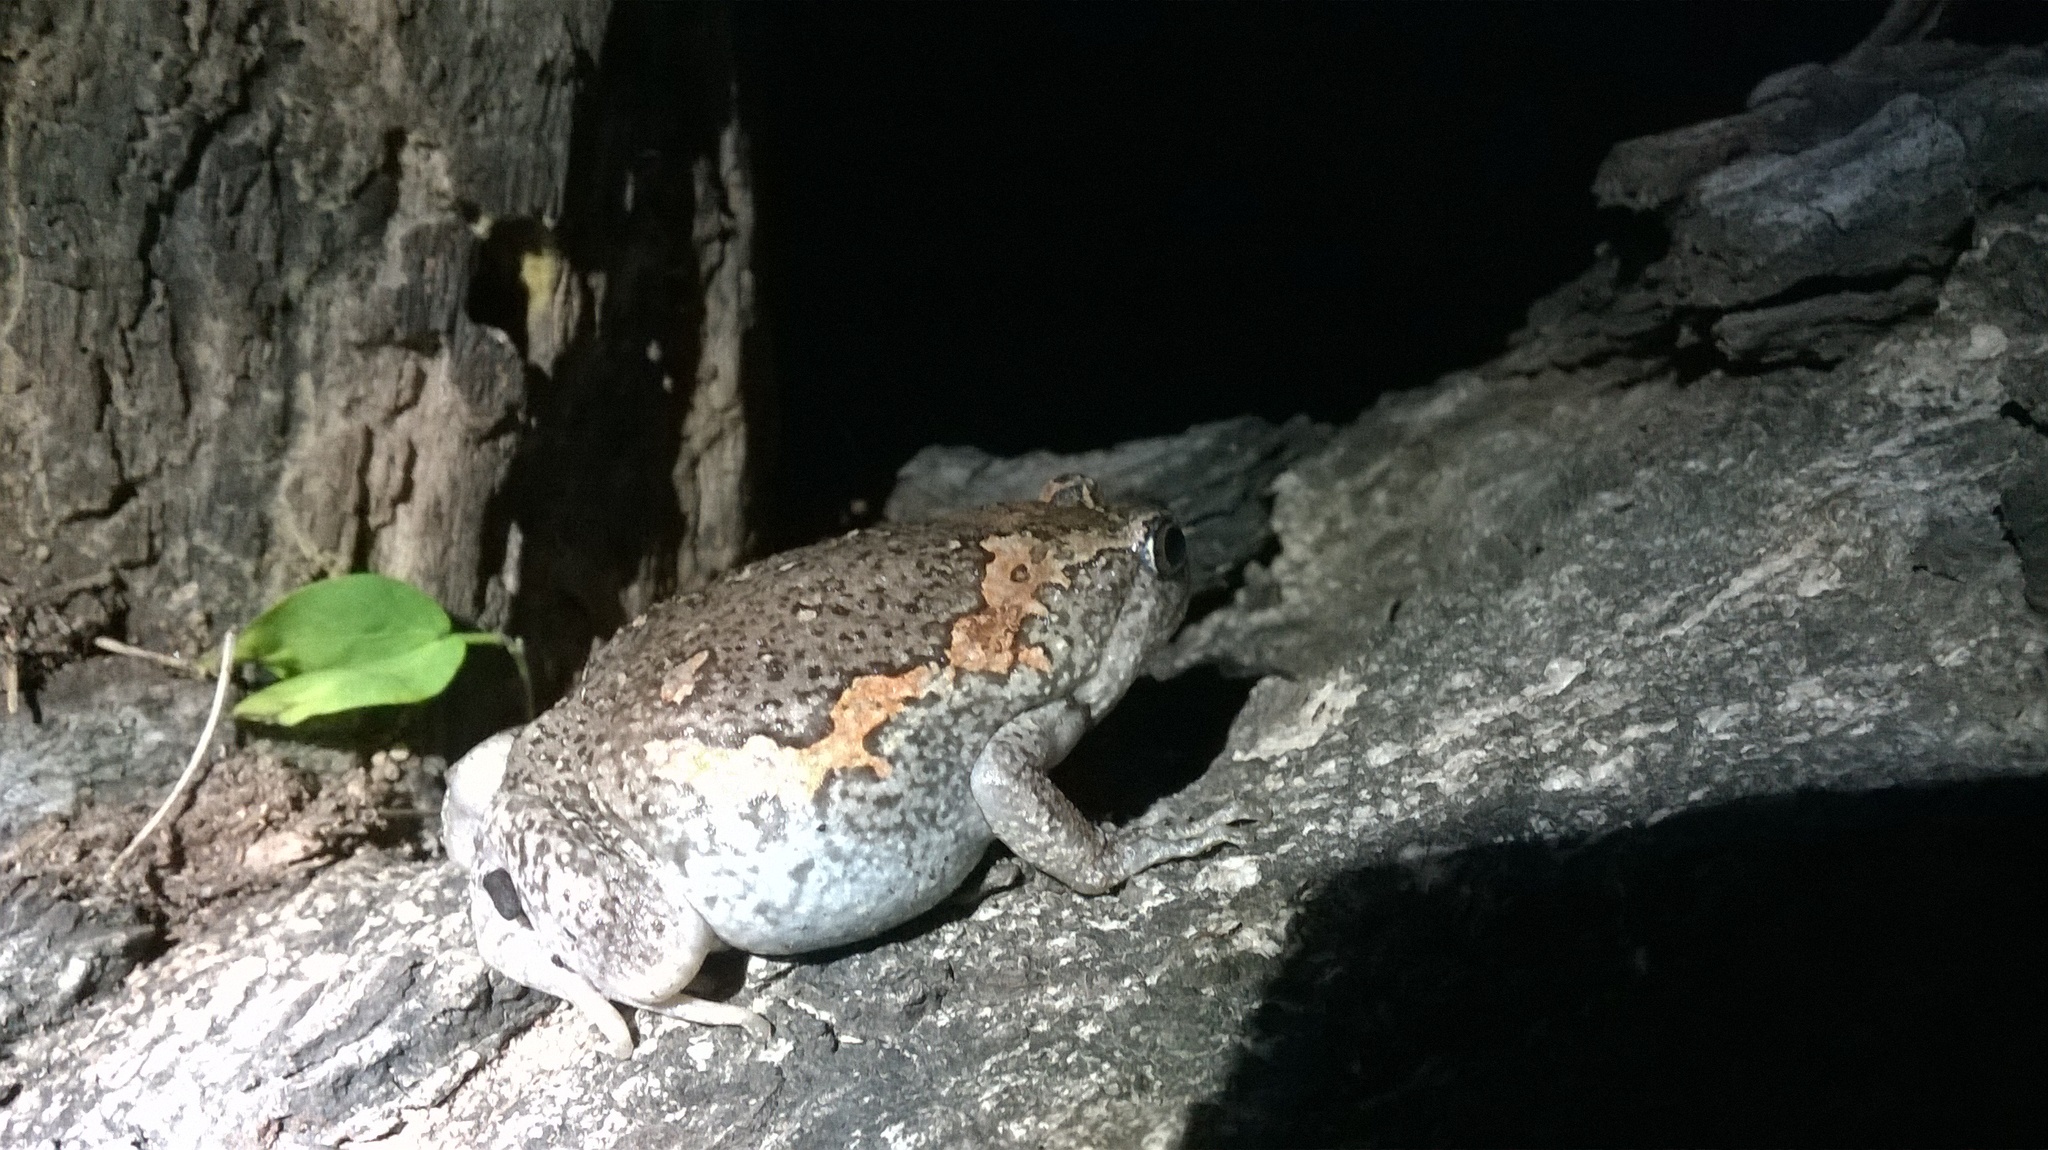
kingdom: Animalia
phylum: Chordata
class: Amphibia
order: Anura
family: Microhylidae
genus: Uperodon
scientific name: Uperodon taprobanicus
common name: Ceylon kaloula
